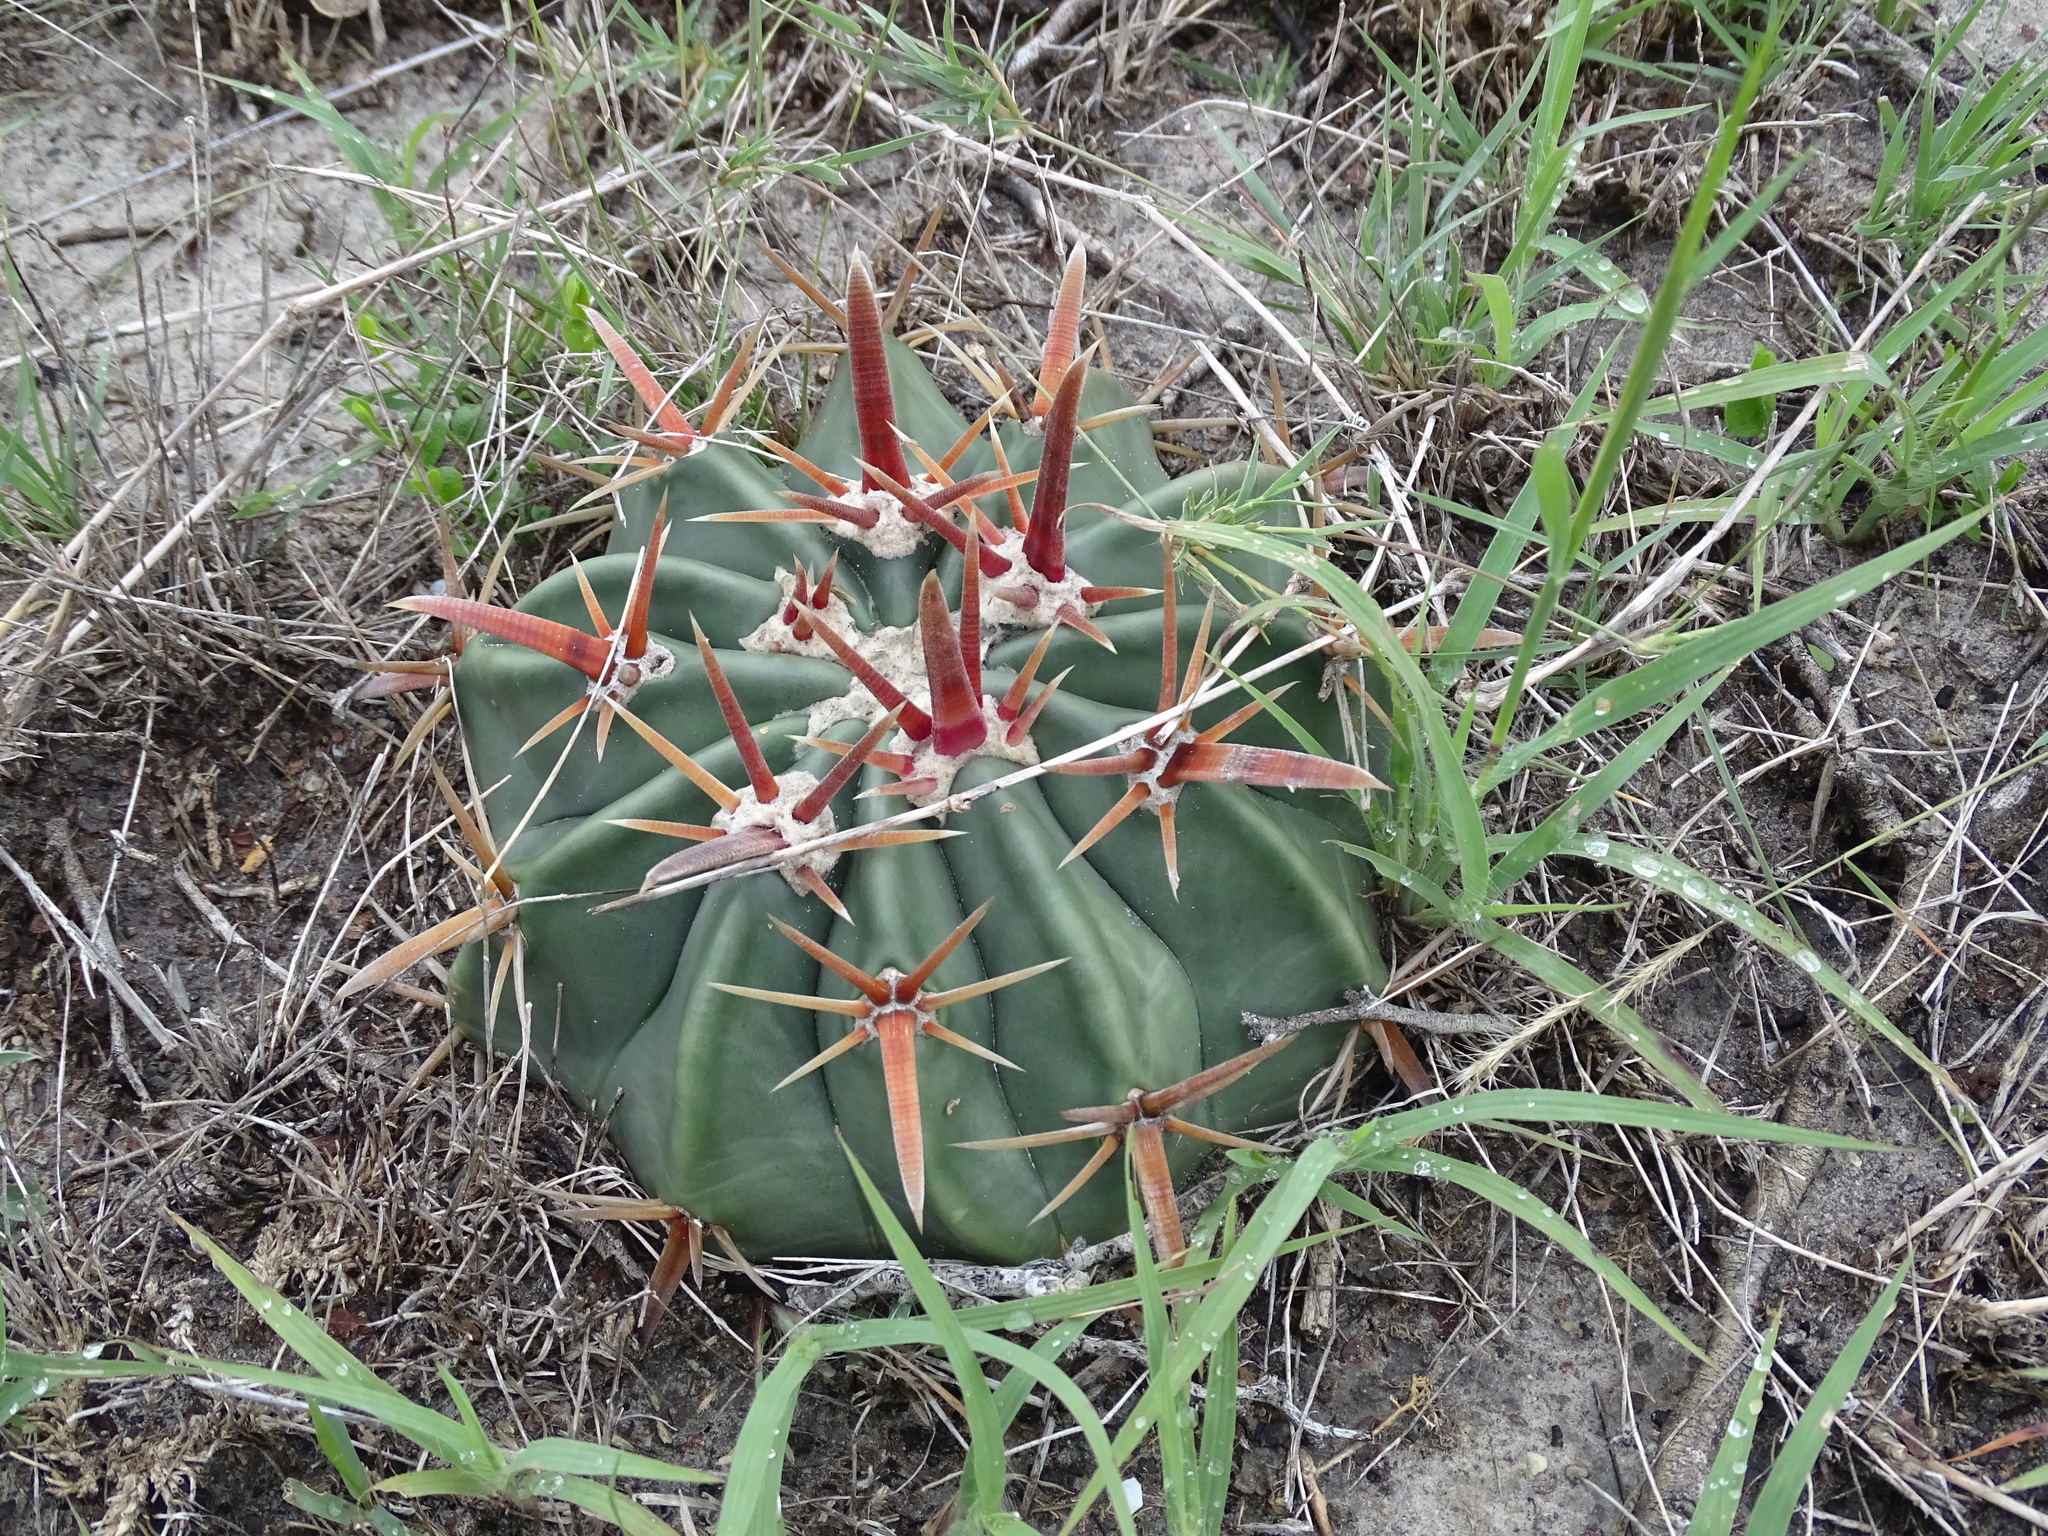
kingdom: Plantae
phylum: Tracheophyta
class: Magnoliopsida
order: Caryophyllales
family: Cactaceae
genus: Echinocactus
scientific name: Echinocactus texensis
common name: Devil's pincushion
